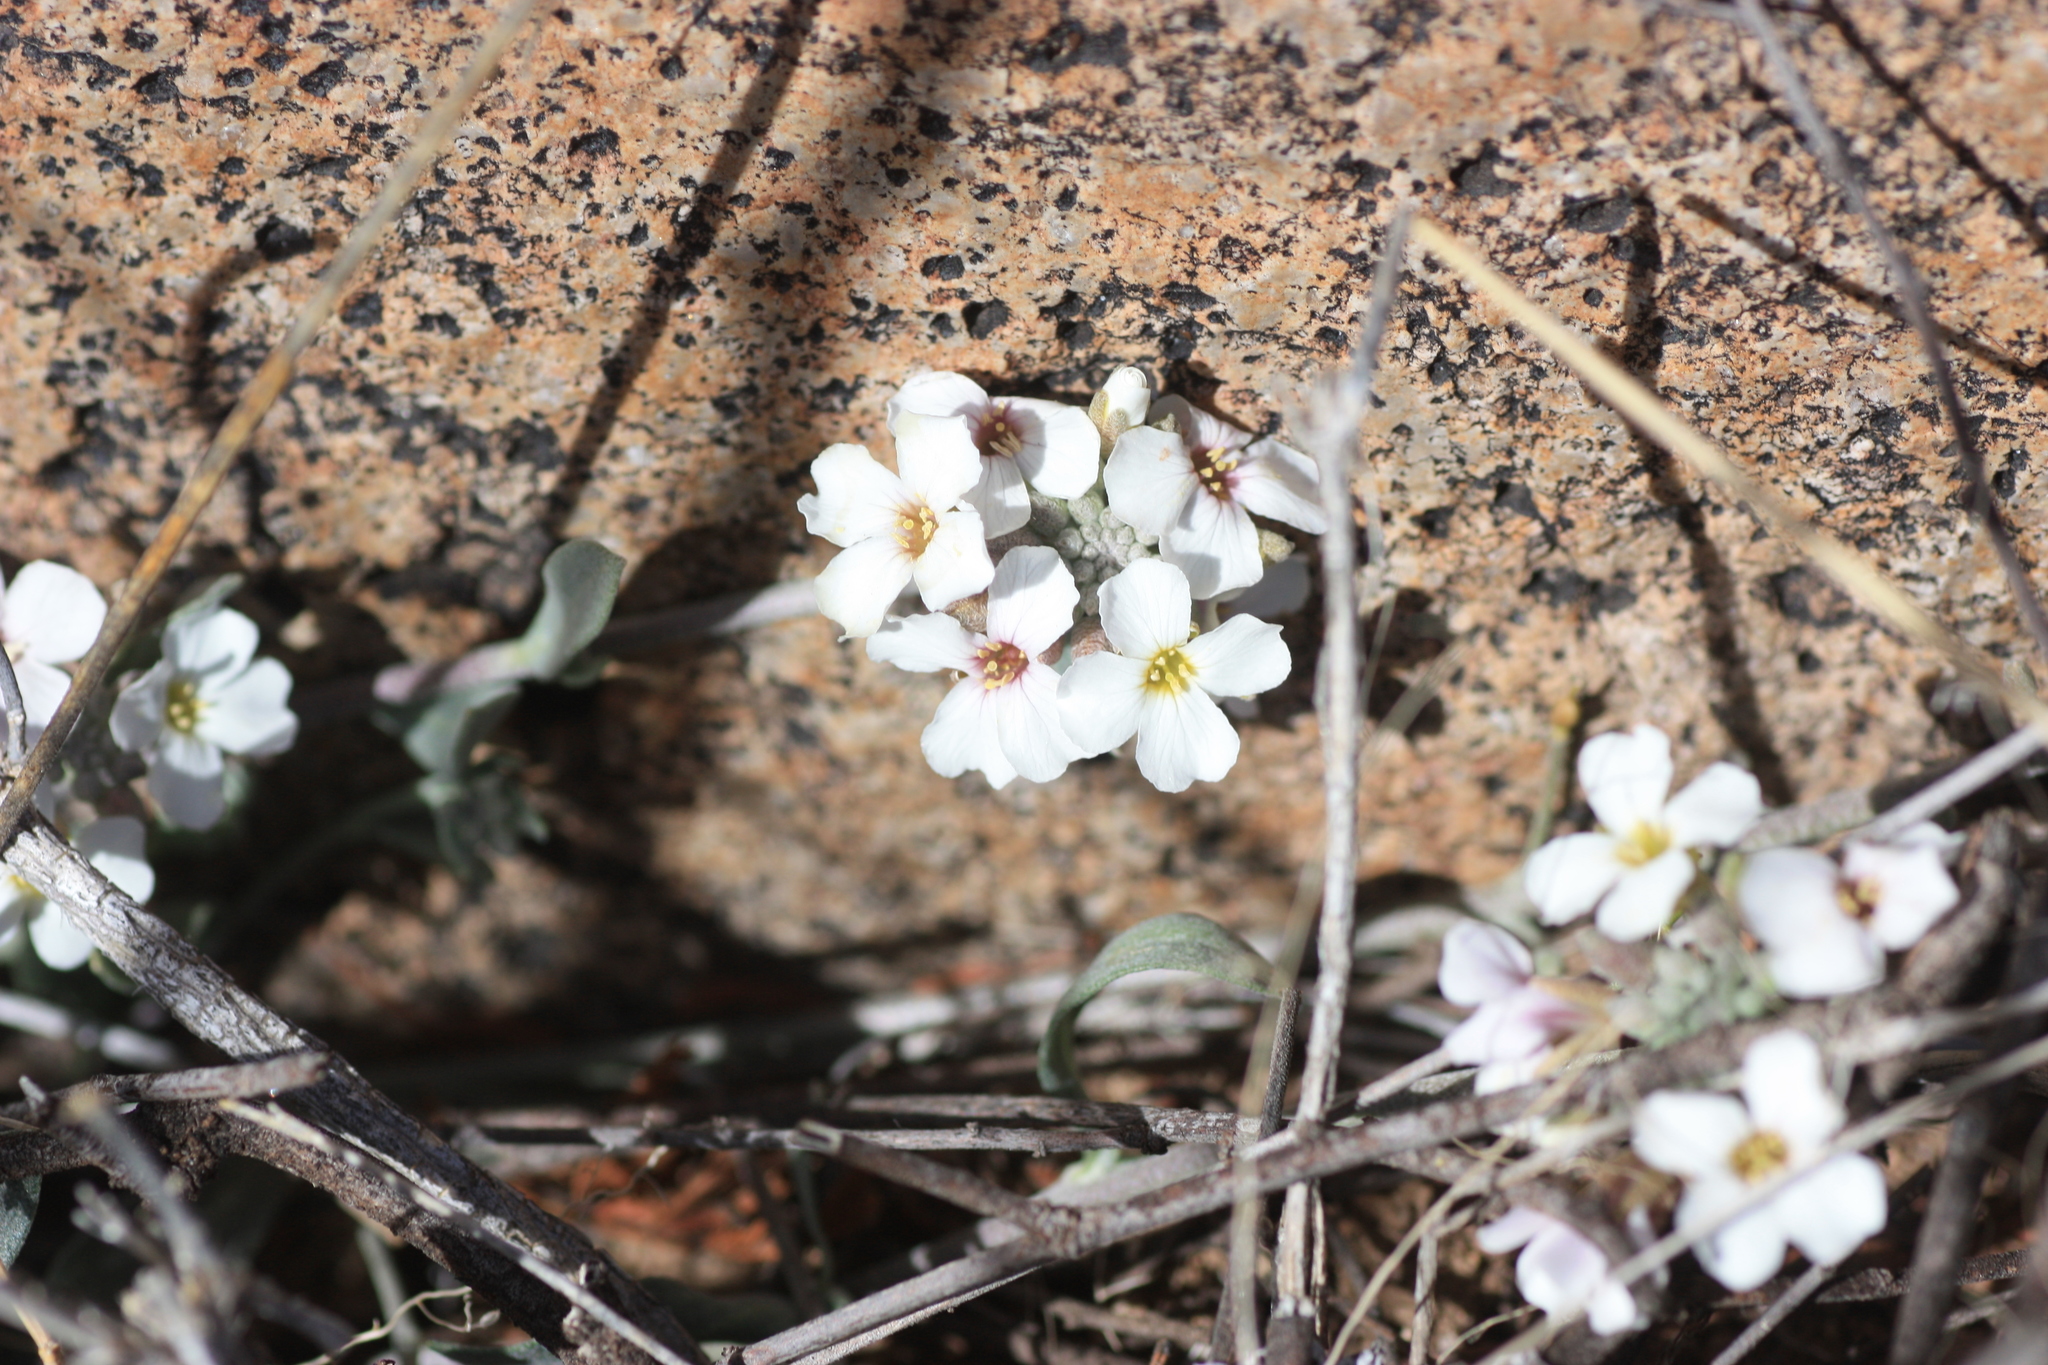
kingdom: Plantae
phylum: Tracheophyta
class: Magnoliopsida
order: Brassicales
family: Brassicaceae
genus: Physaria
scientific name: Physaria purpurea
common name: Rose bladderpod
